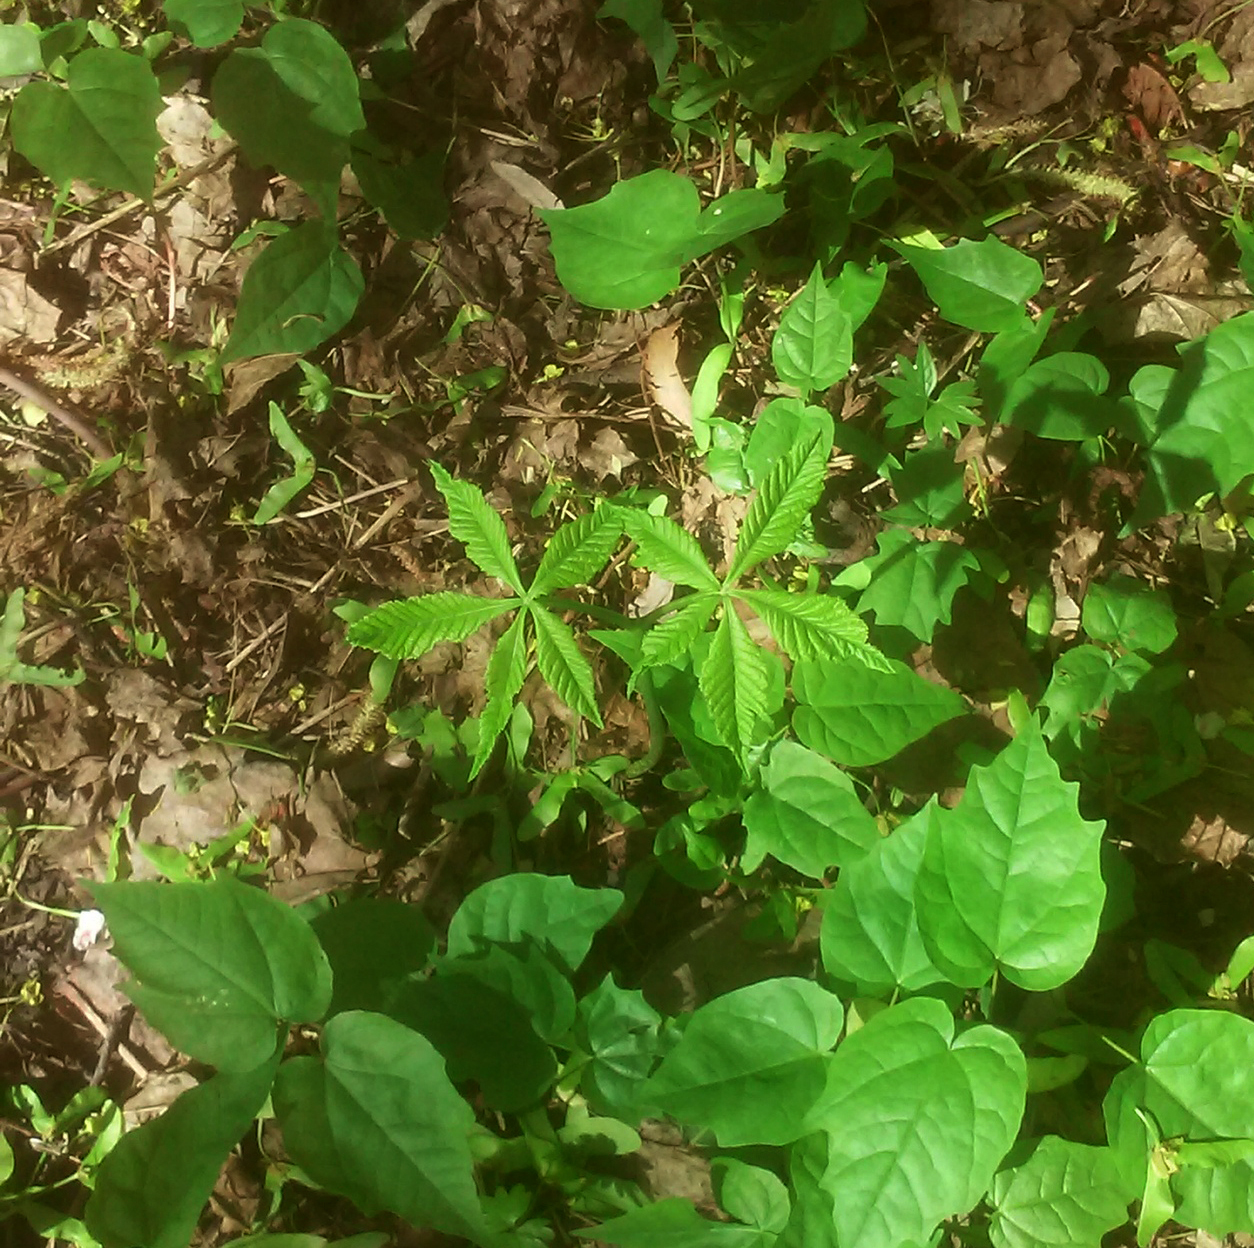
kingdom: Plantae
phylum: Tracheophyta
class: Magnoliopsida
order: Sapindales
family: Sapindaceae
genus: Aesculus
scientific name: Aesculus hippocastanum
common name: Horse-chestnut
